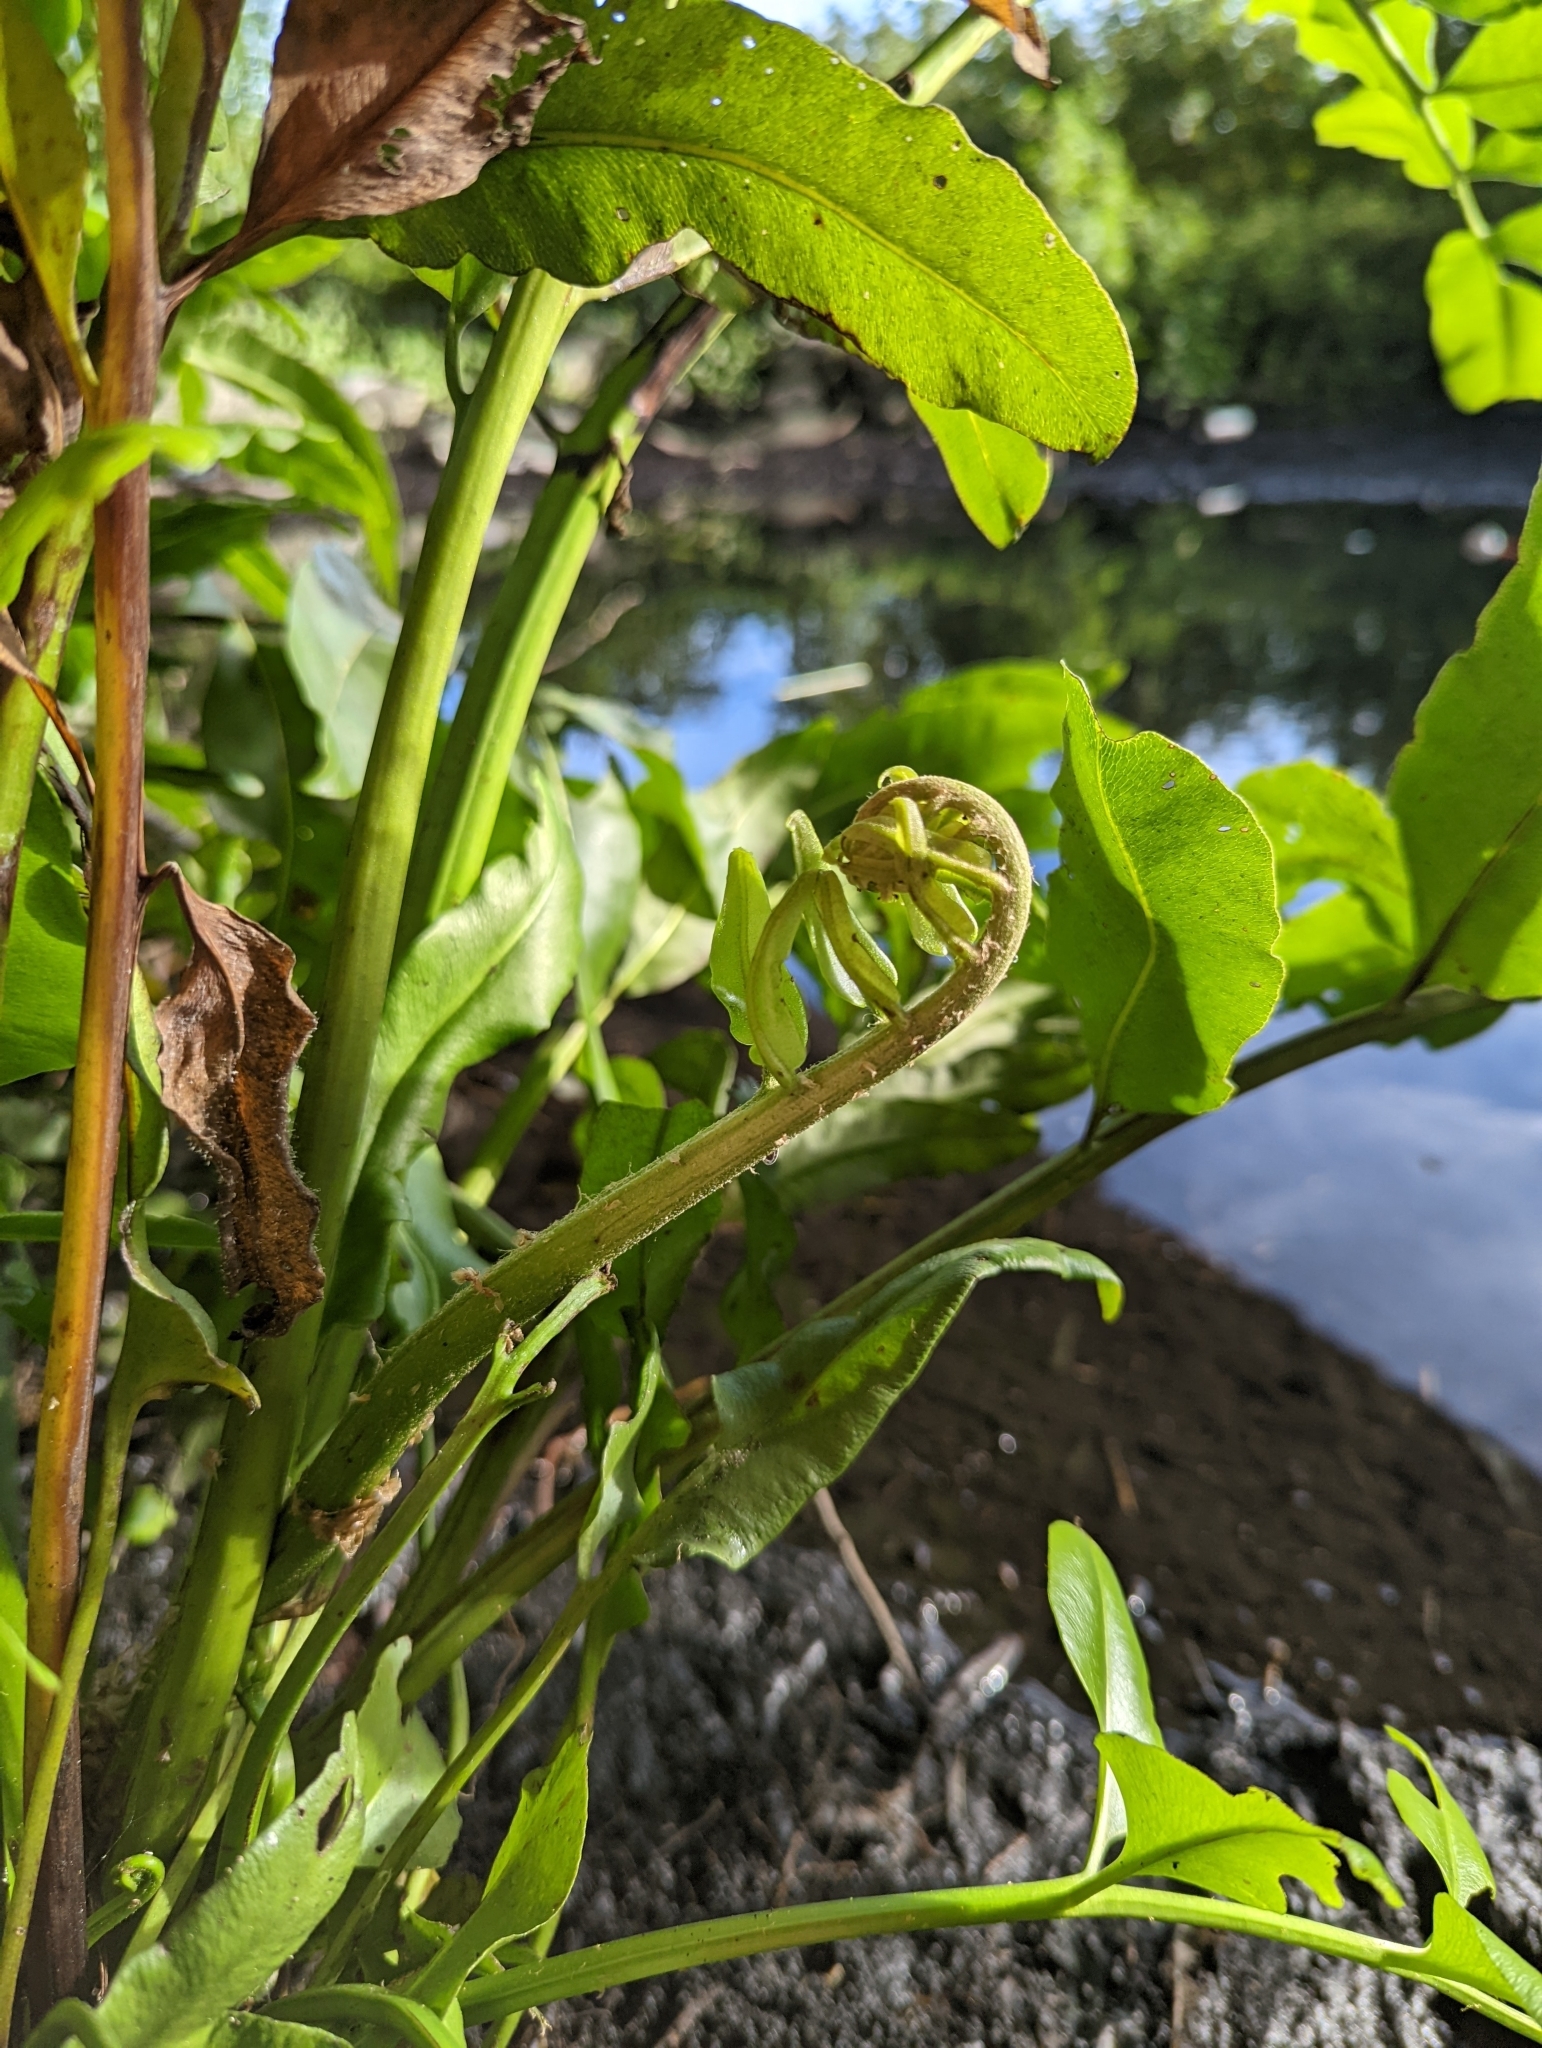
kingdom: Plantae
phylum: Tracheophyta
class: Polypodiopsida
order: Polypodiales
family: Pteridaceae
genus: Acrostichum
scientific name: Acrostichum danaeifolium
